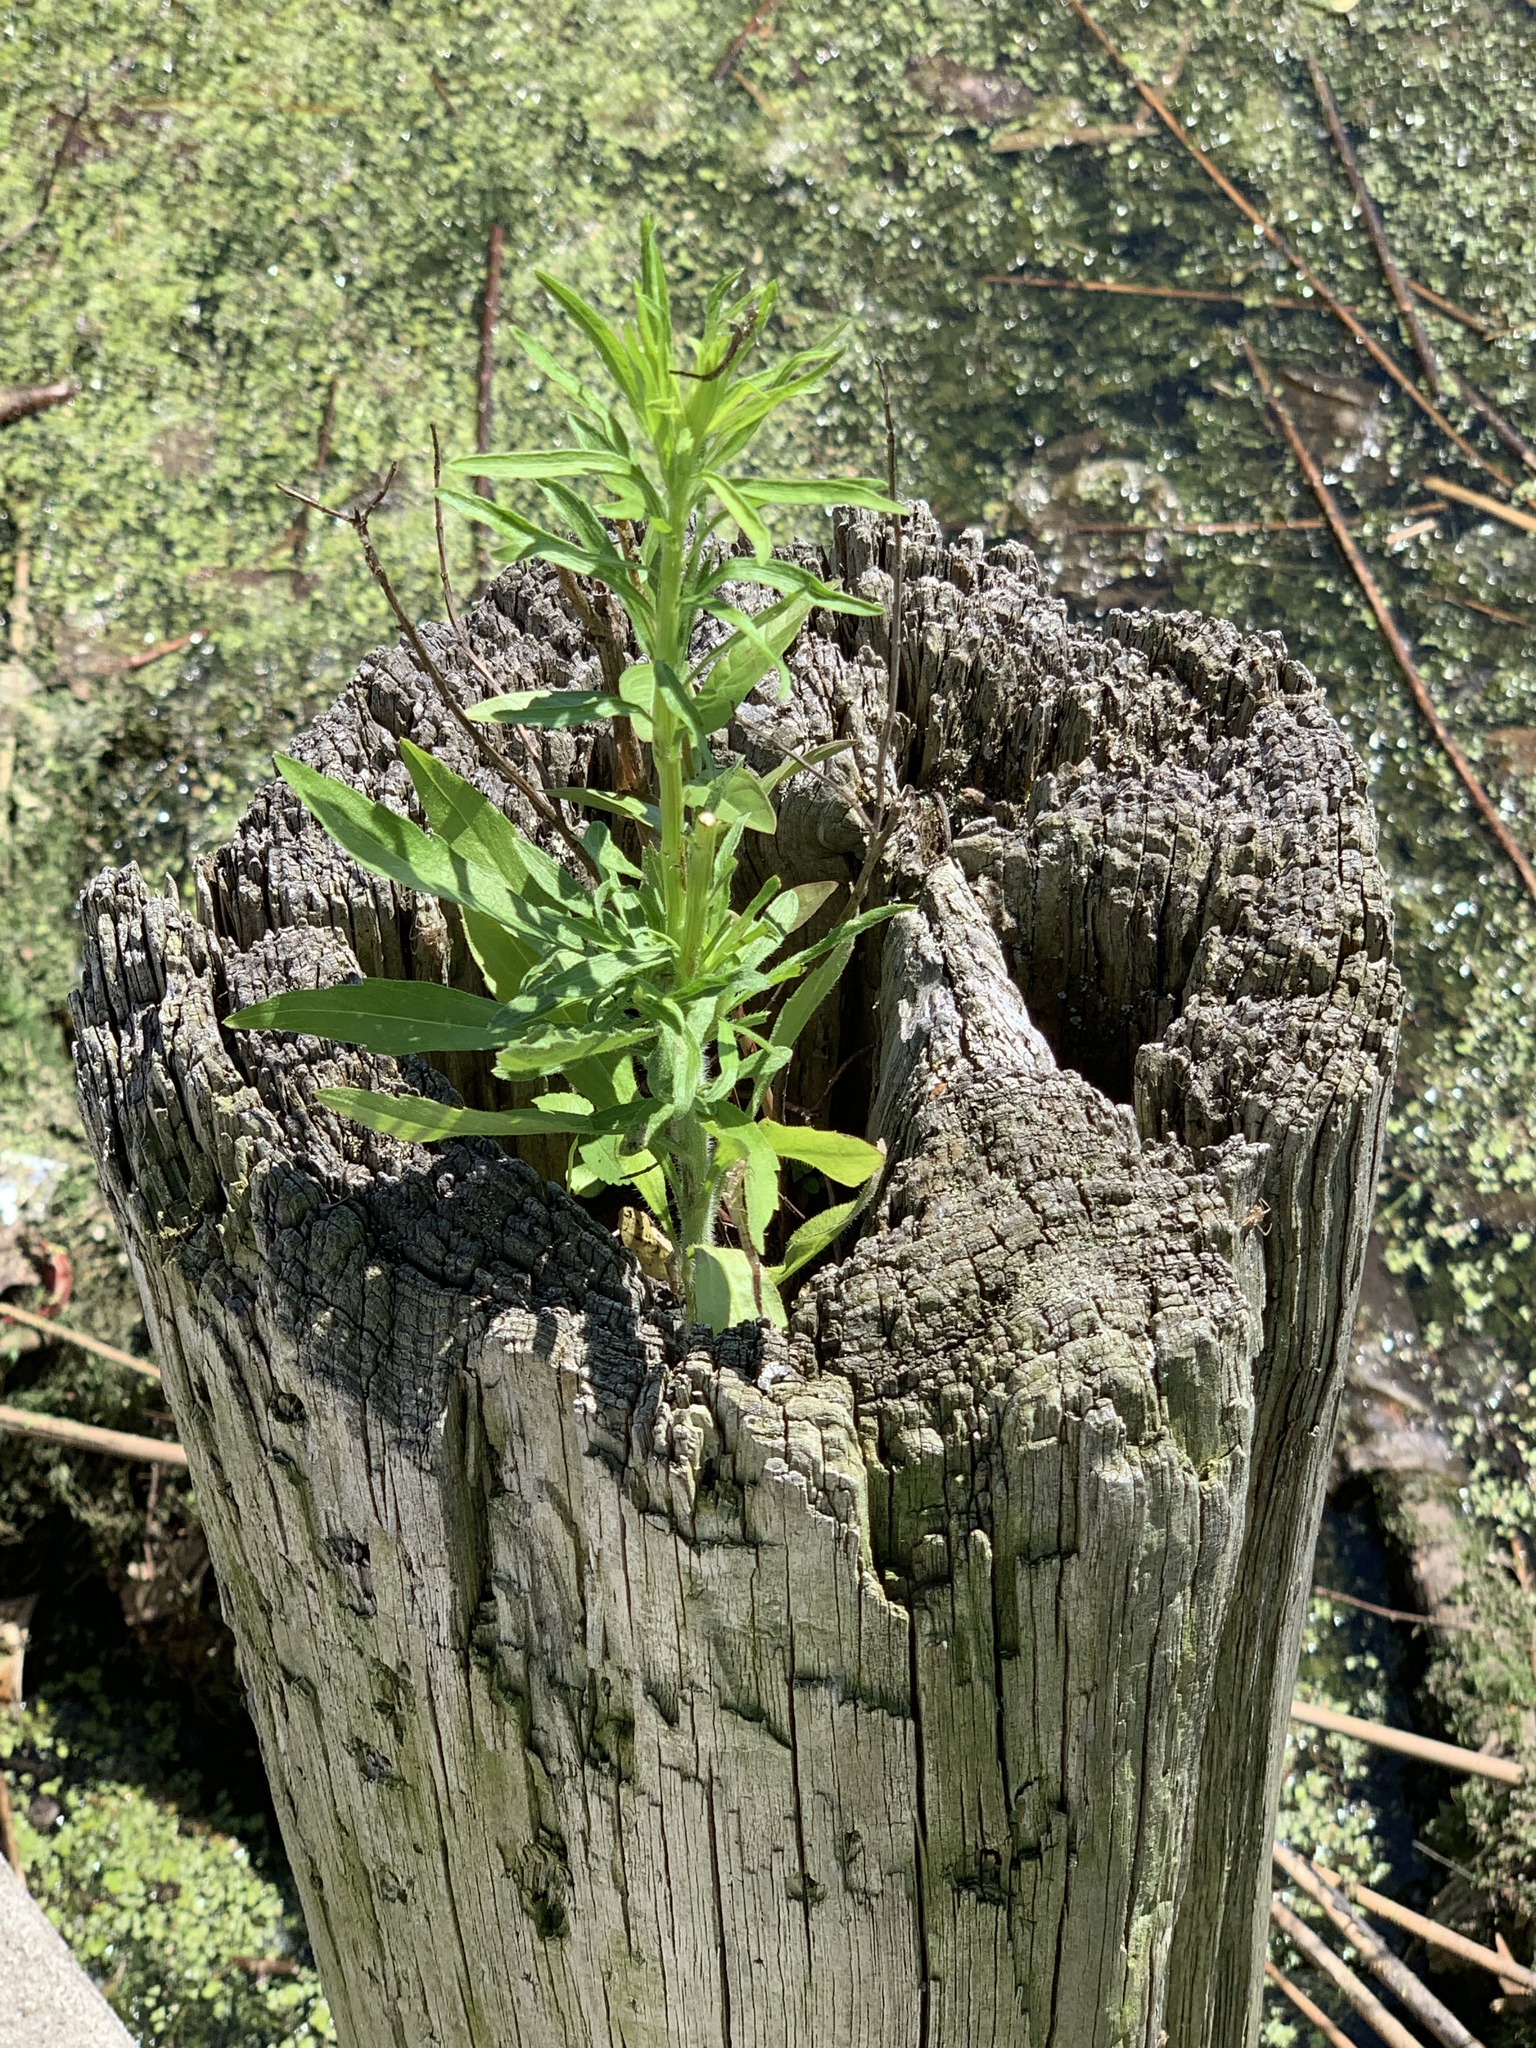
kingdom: Plantae
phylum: Tracheophyta
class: Magnoliopsida
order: Asterales
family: Asteraceae
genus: Erigeron
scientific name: Erigeron canadensis
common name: Canadian fleabane
